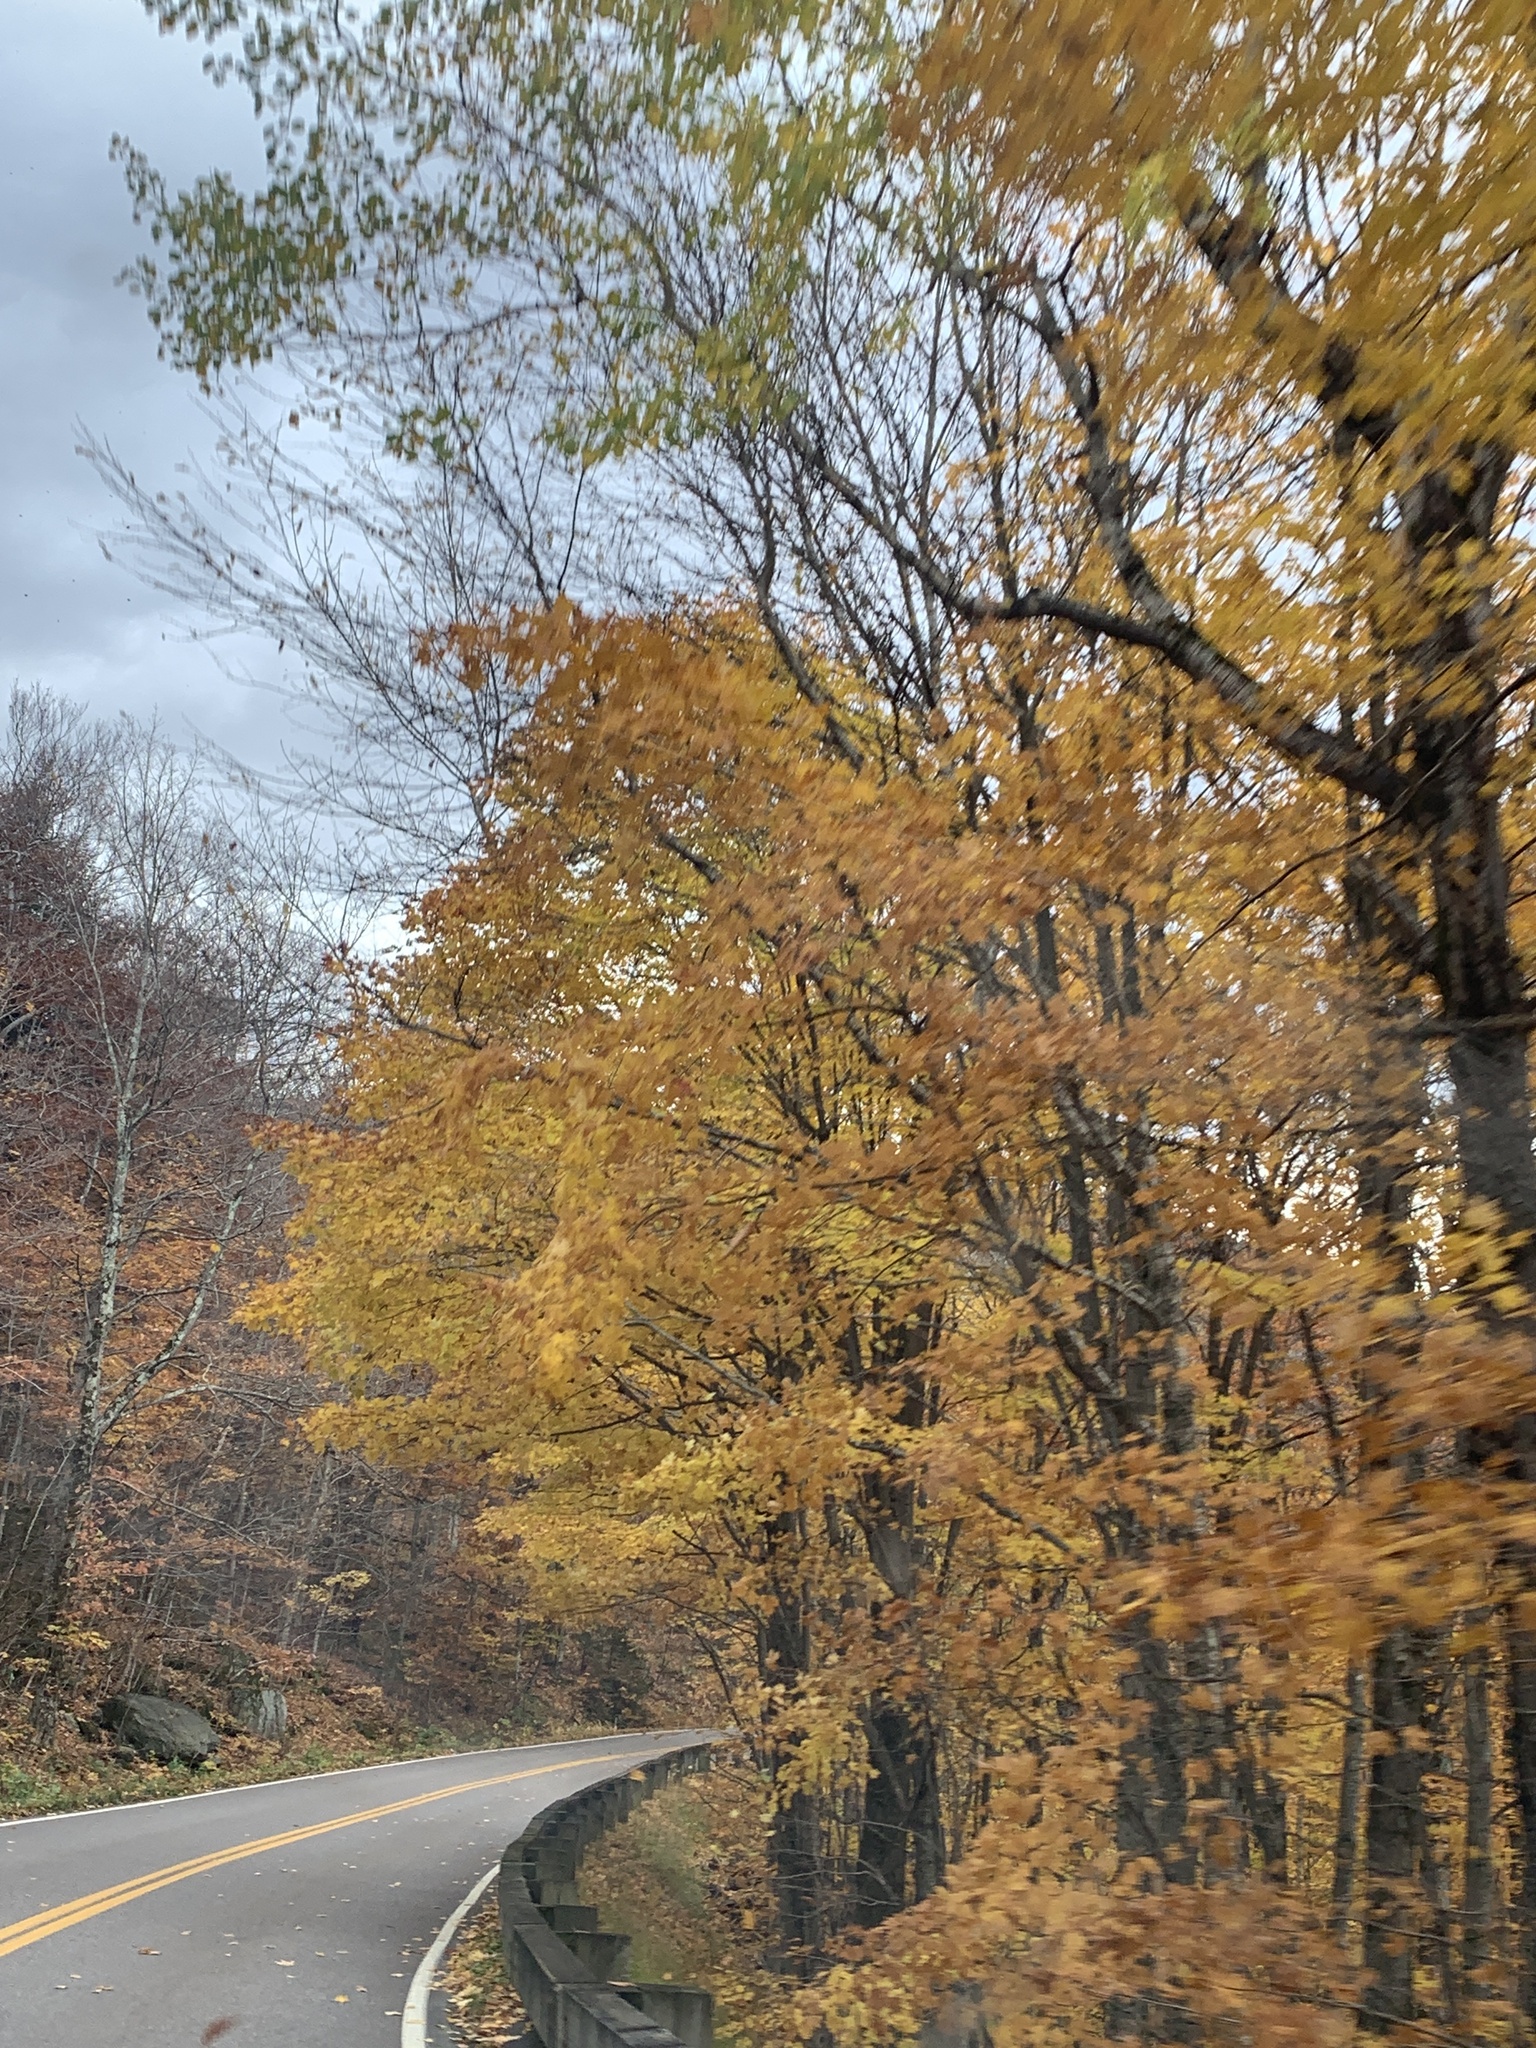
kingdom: Plantae
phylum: Tracheophyta
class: Magnoliopsida
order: Sapindales
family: Sapindaceae
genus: Acer
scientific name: Acer saccharum
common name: Sugar maple
